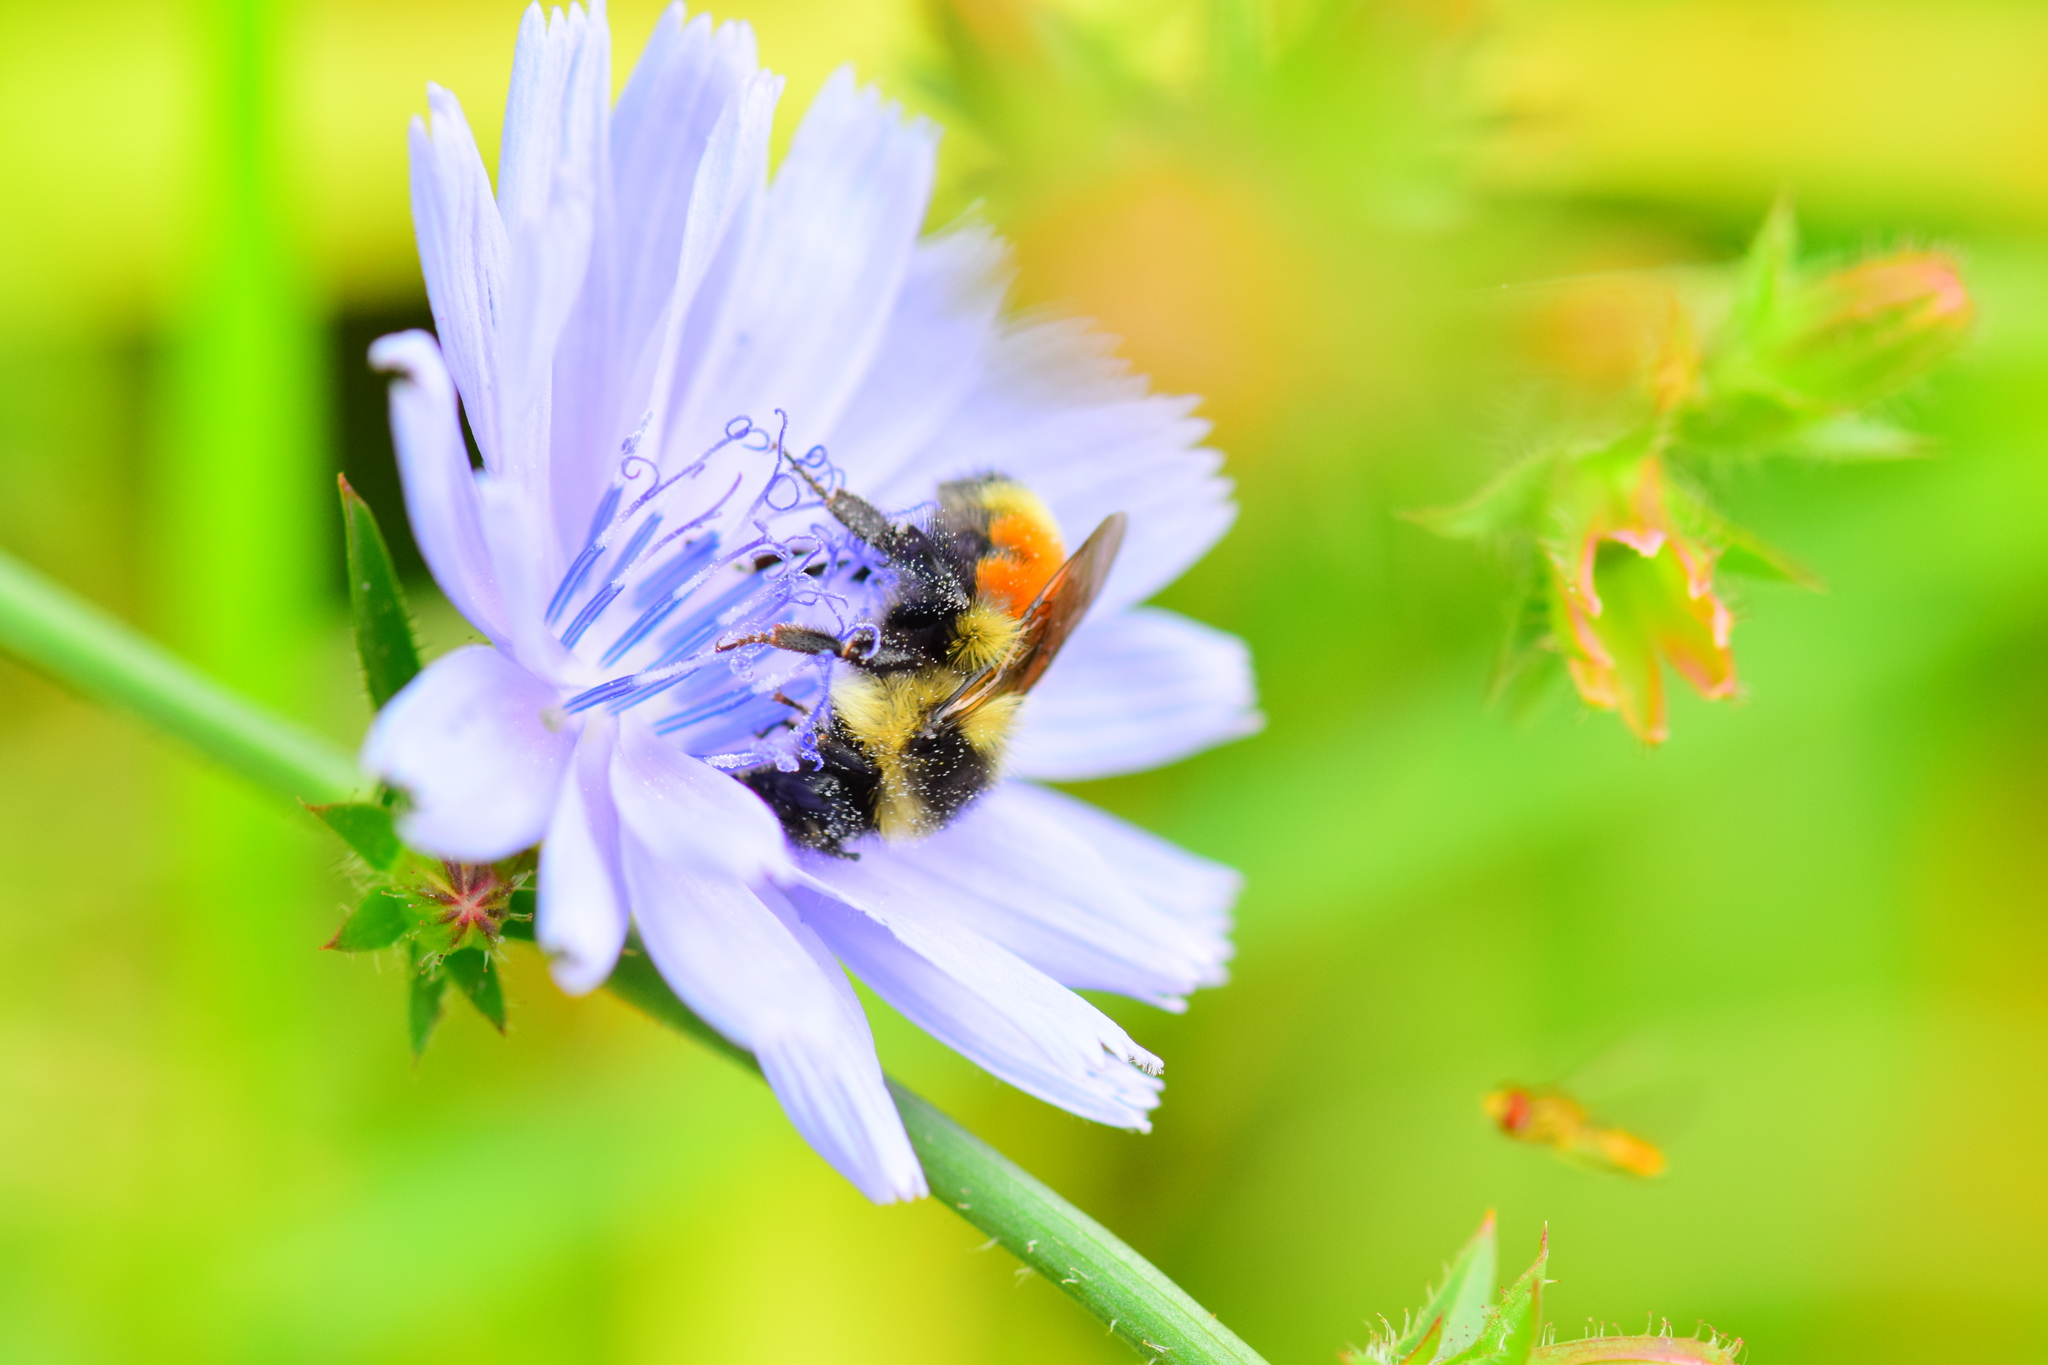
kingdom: Animalia
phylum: Arthropoda
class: Insecta
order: Hymenoptera
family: Apidae
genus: Bombus
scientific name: Bombus ternarius
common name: Tri-colored bumble bee
